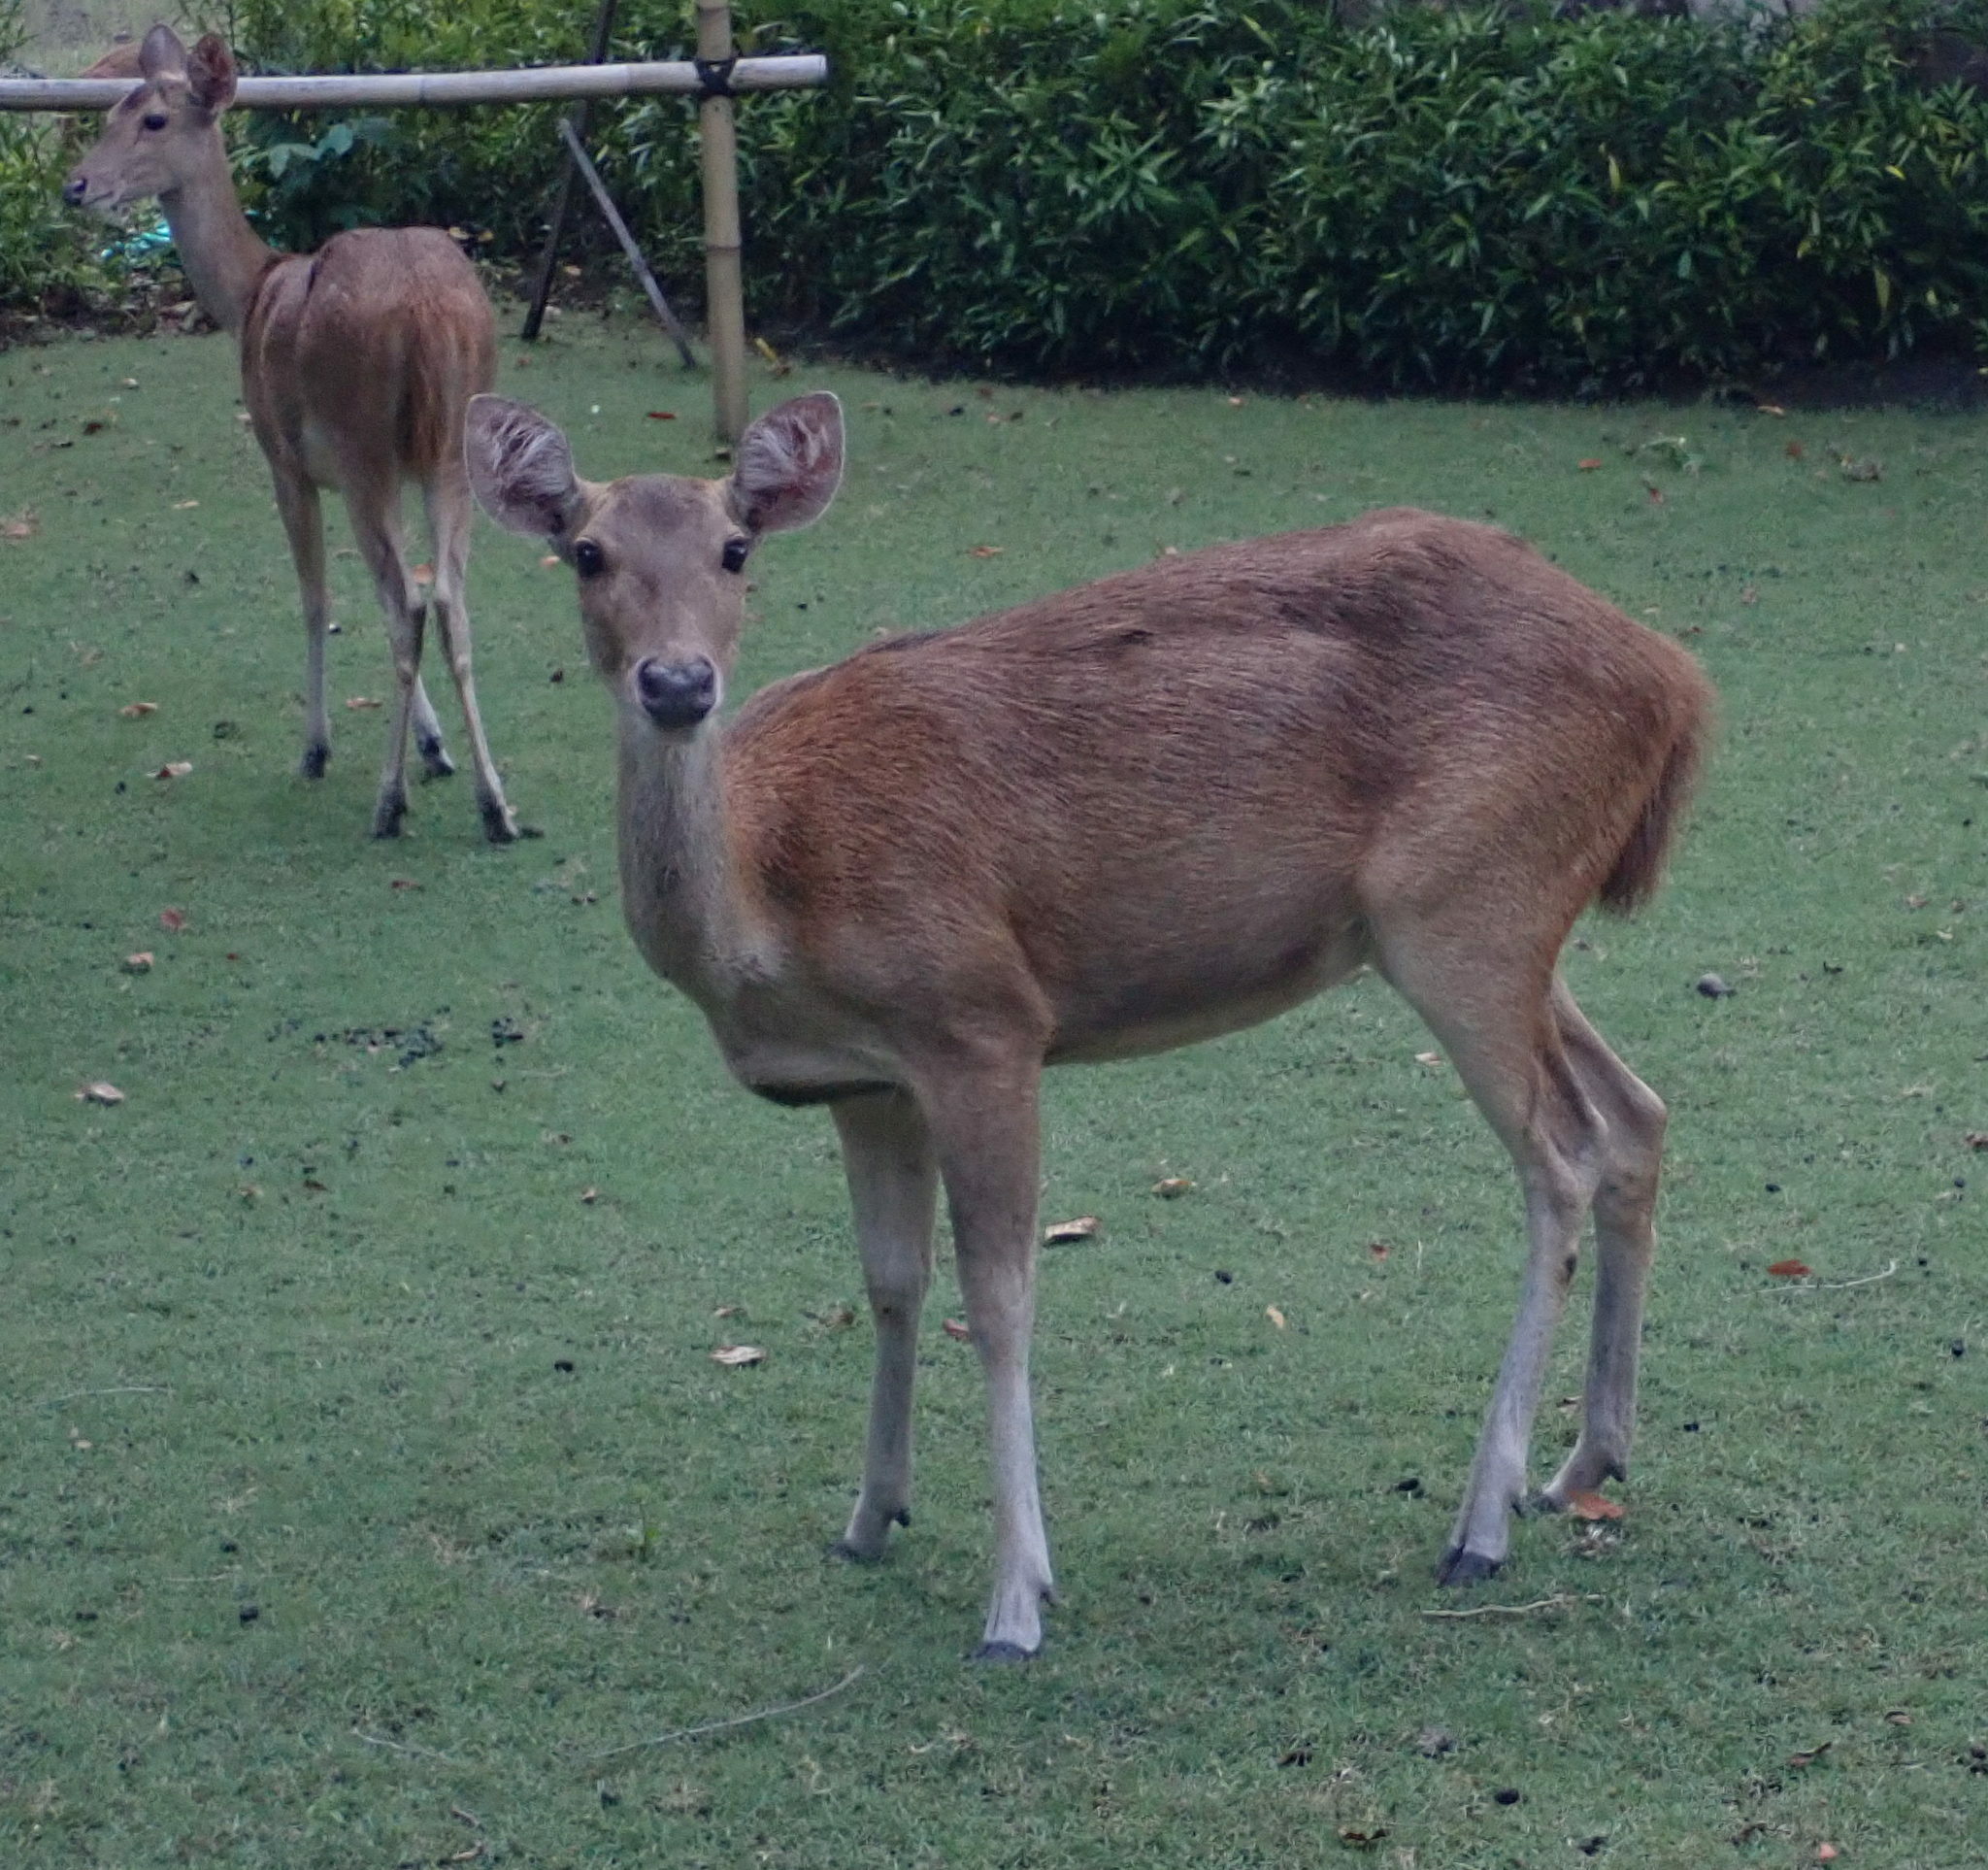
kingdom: Animalia
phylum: Chordata
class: Mammalia
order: Artiodactyla
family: Cervidae
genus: Rusa
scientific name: Rusa timorensis
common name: Javan rusa
